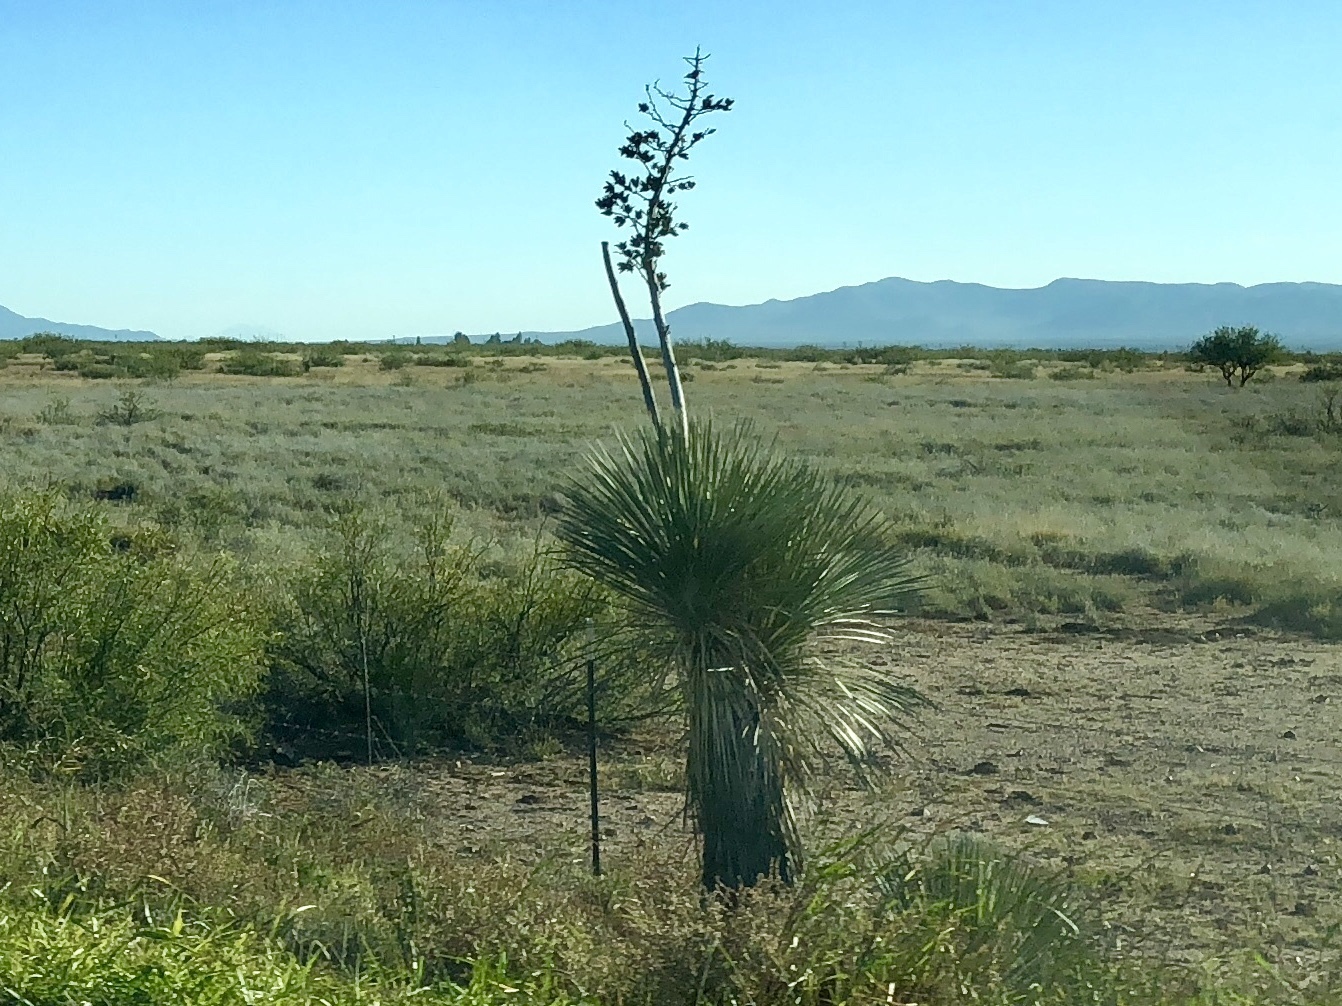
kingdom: Plantae
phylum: Tracheophyta
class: Liliopsida
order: Asparagales
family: Asparagaceae
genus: Yucca
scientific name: Yucca elata
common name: Palmella
